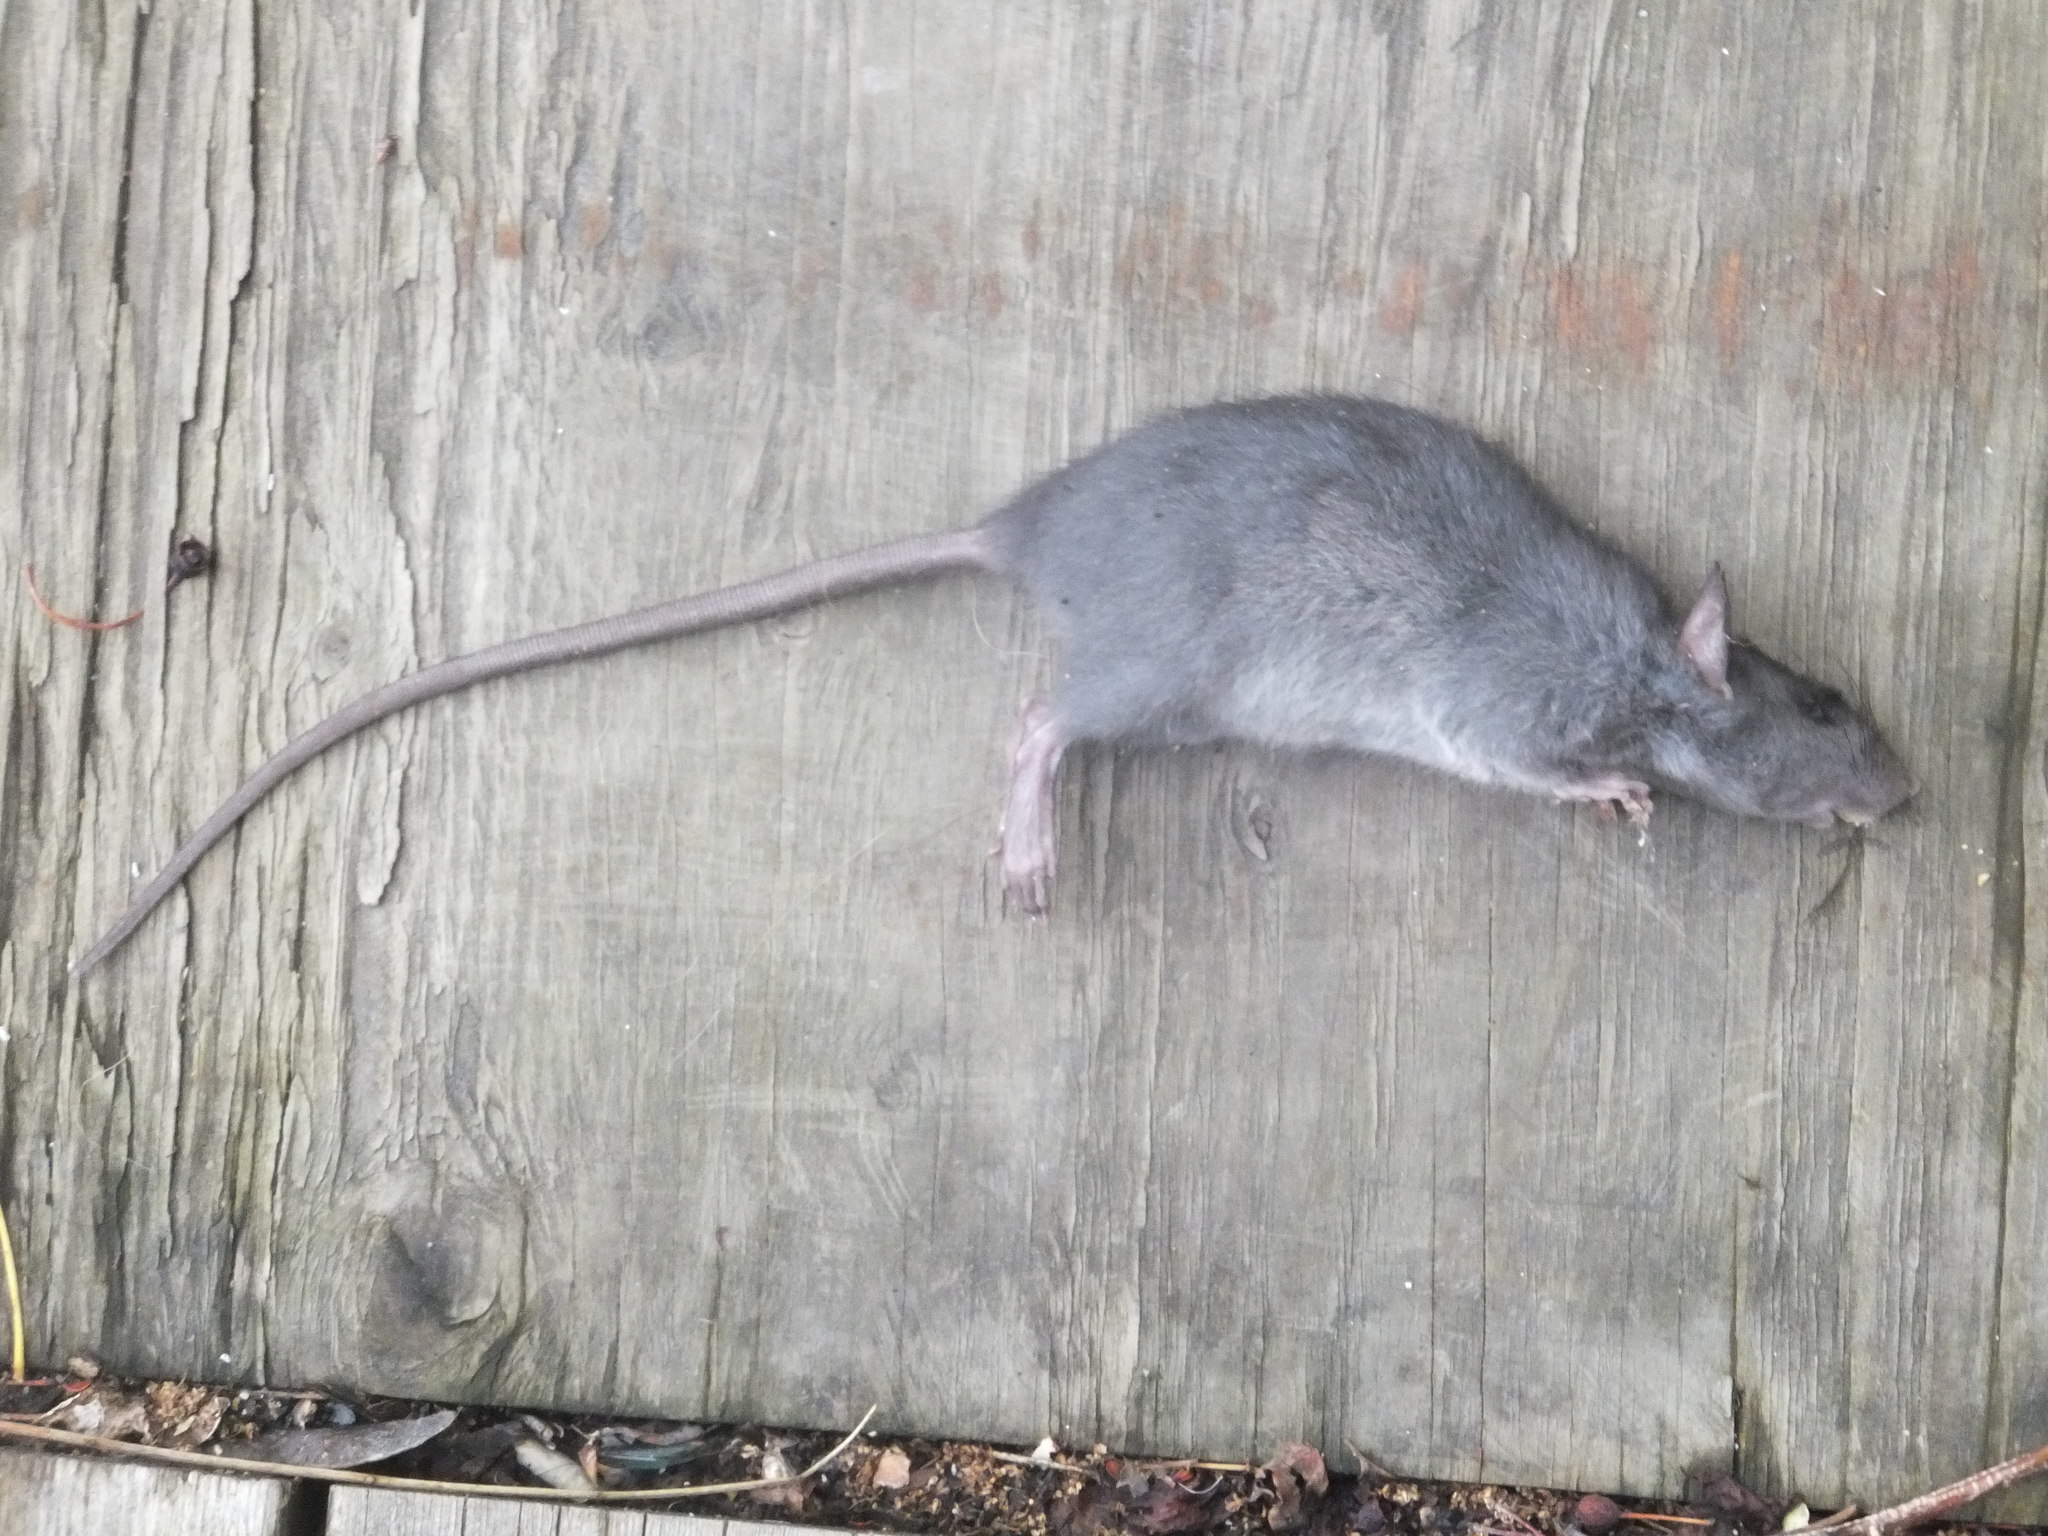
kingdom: Animalia
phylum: Chordata
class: Mammalia
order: Rodentia
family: Muridae
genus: Rattus
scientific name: Rattus rattus
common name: Black rat
